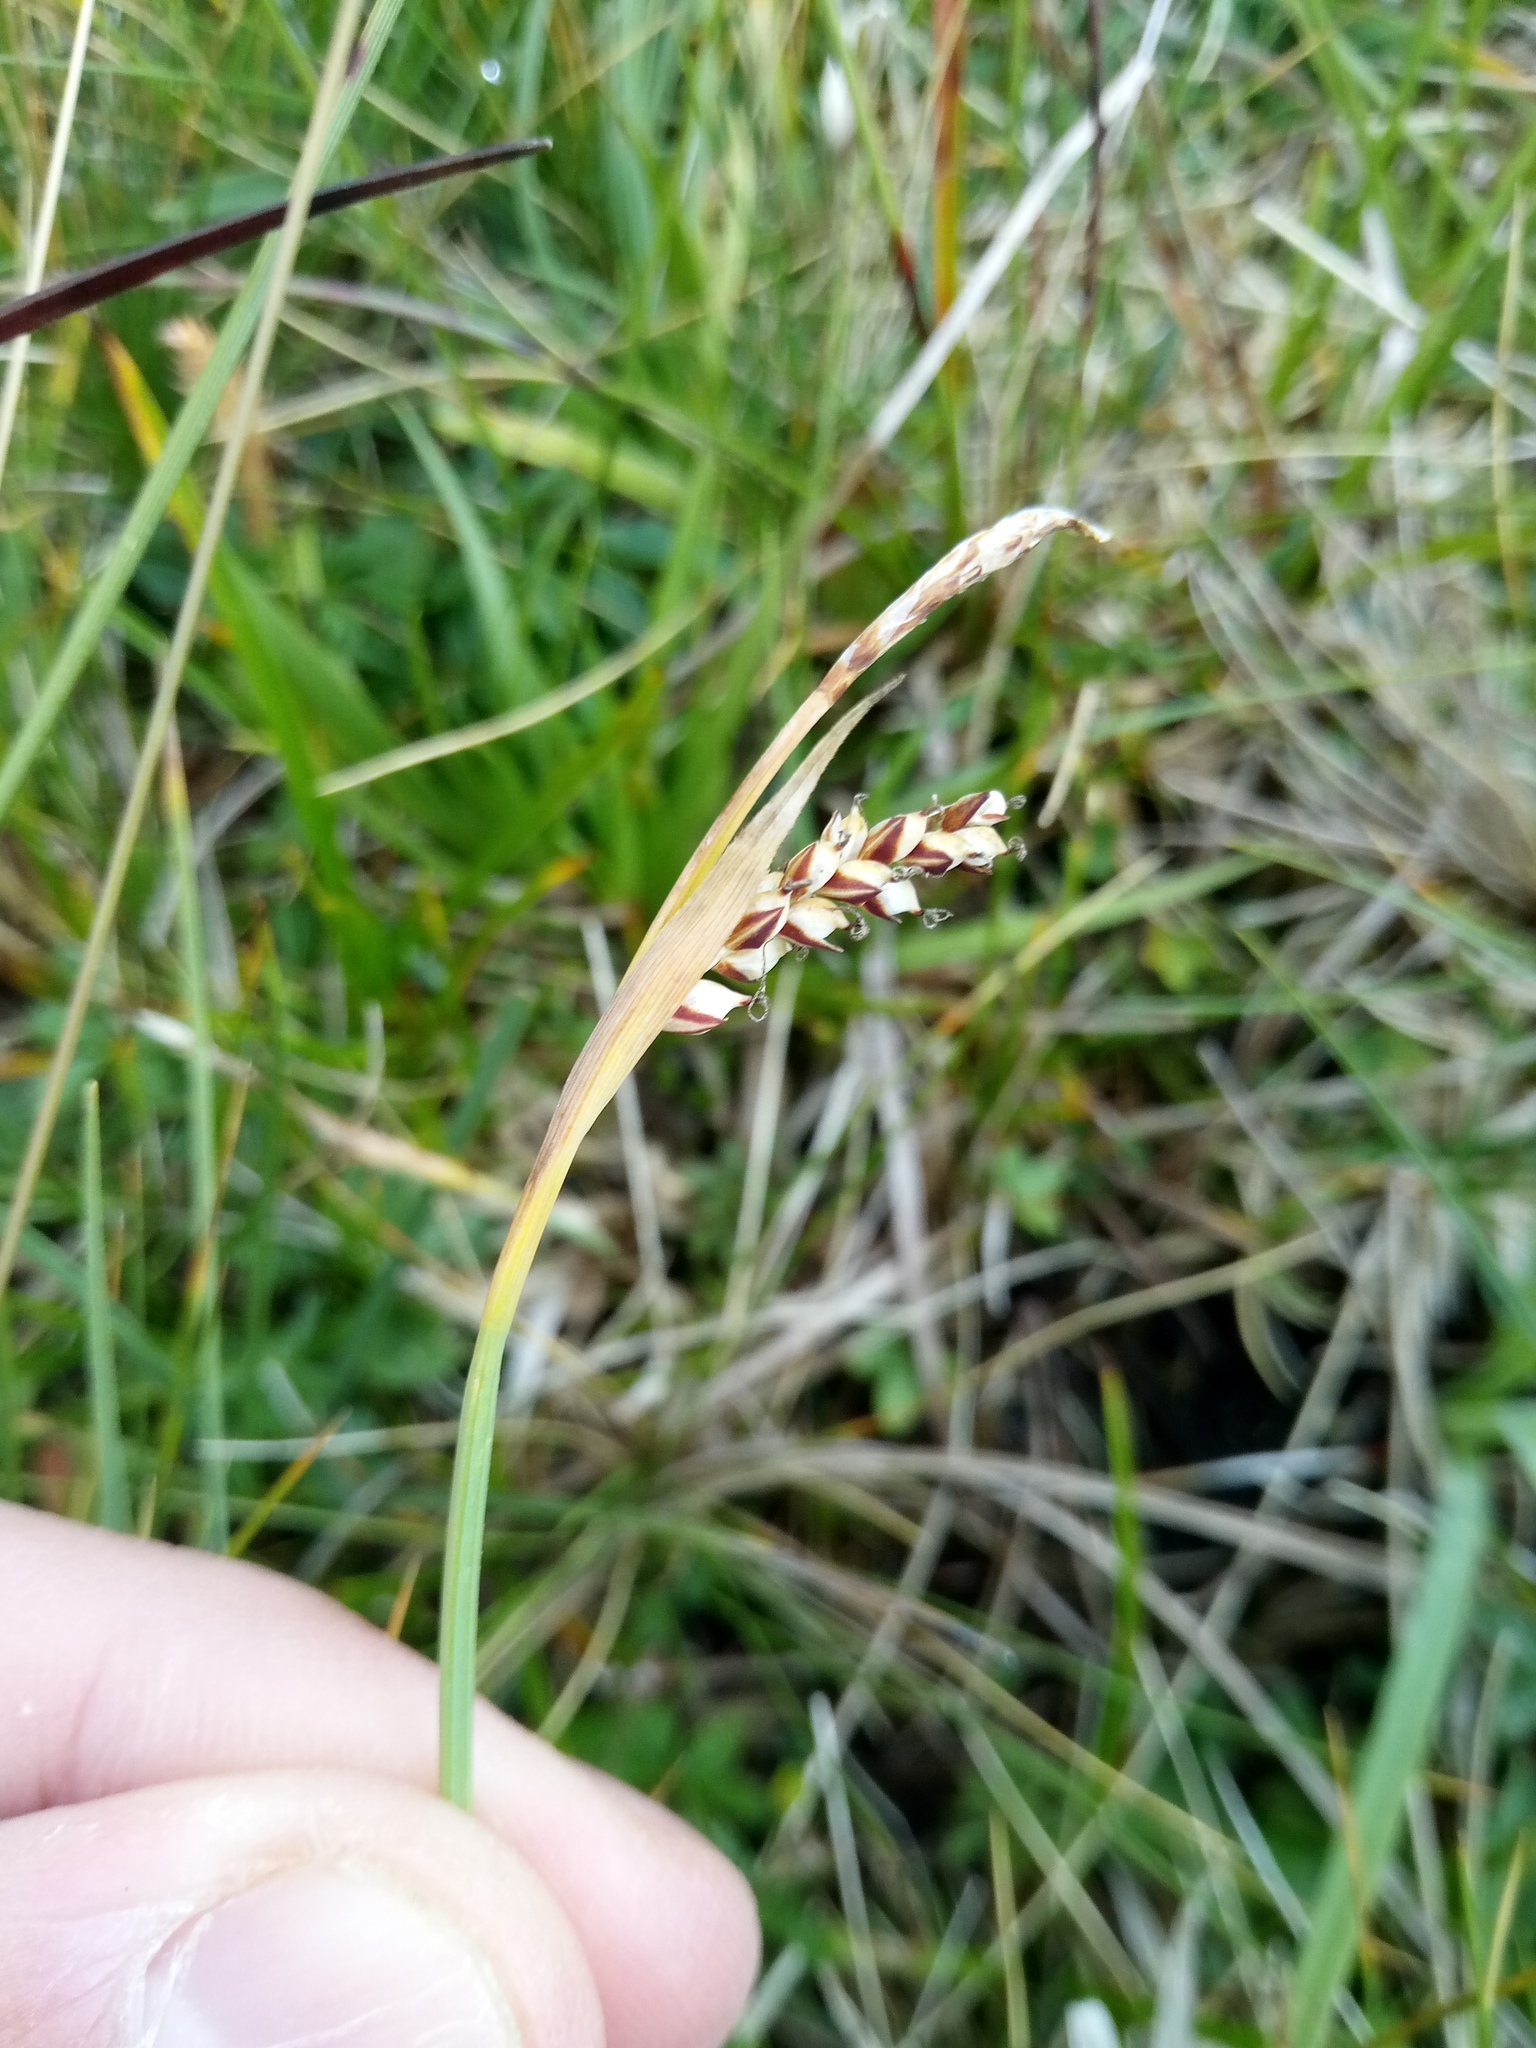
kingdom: Plantae
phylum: Tracheophyta
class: Liliopsida
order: Poales
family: Cyperaceae
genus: Carex
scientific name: Carex panicea
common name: Carnation sedge
